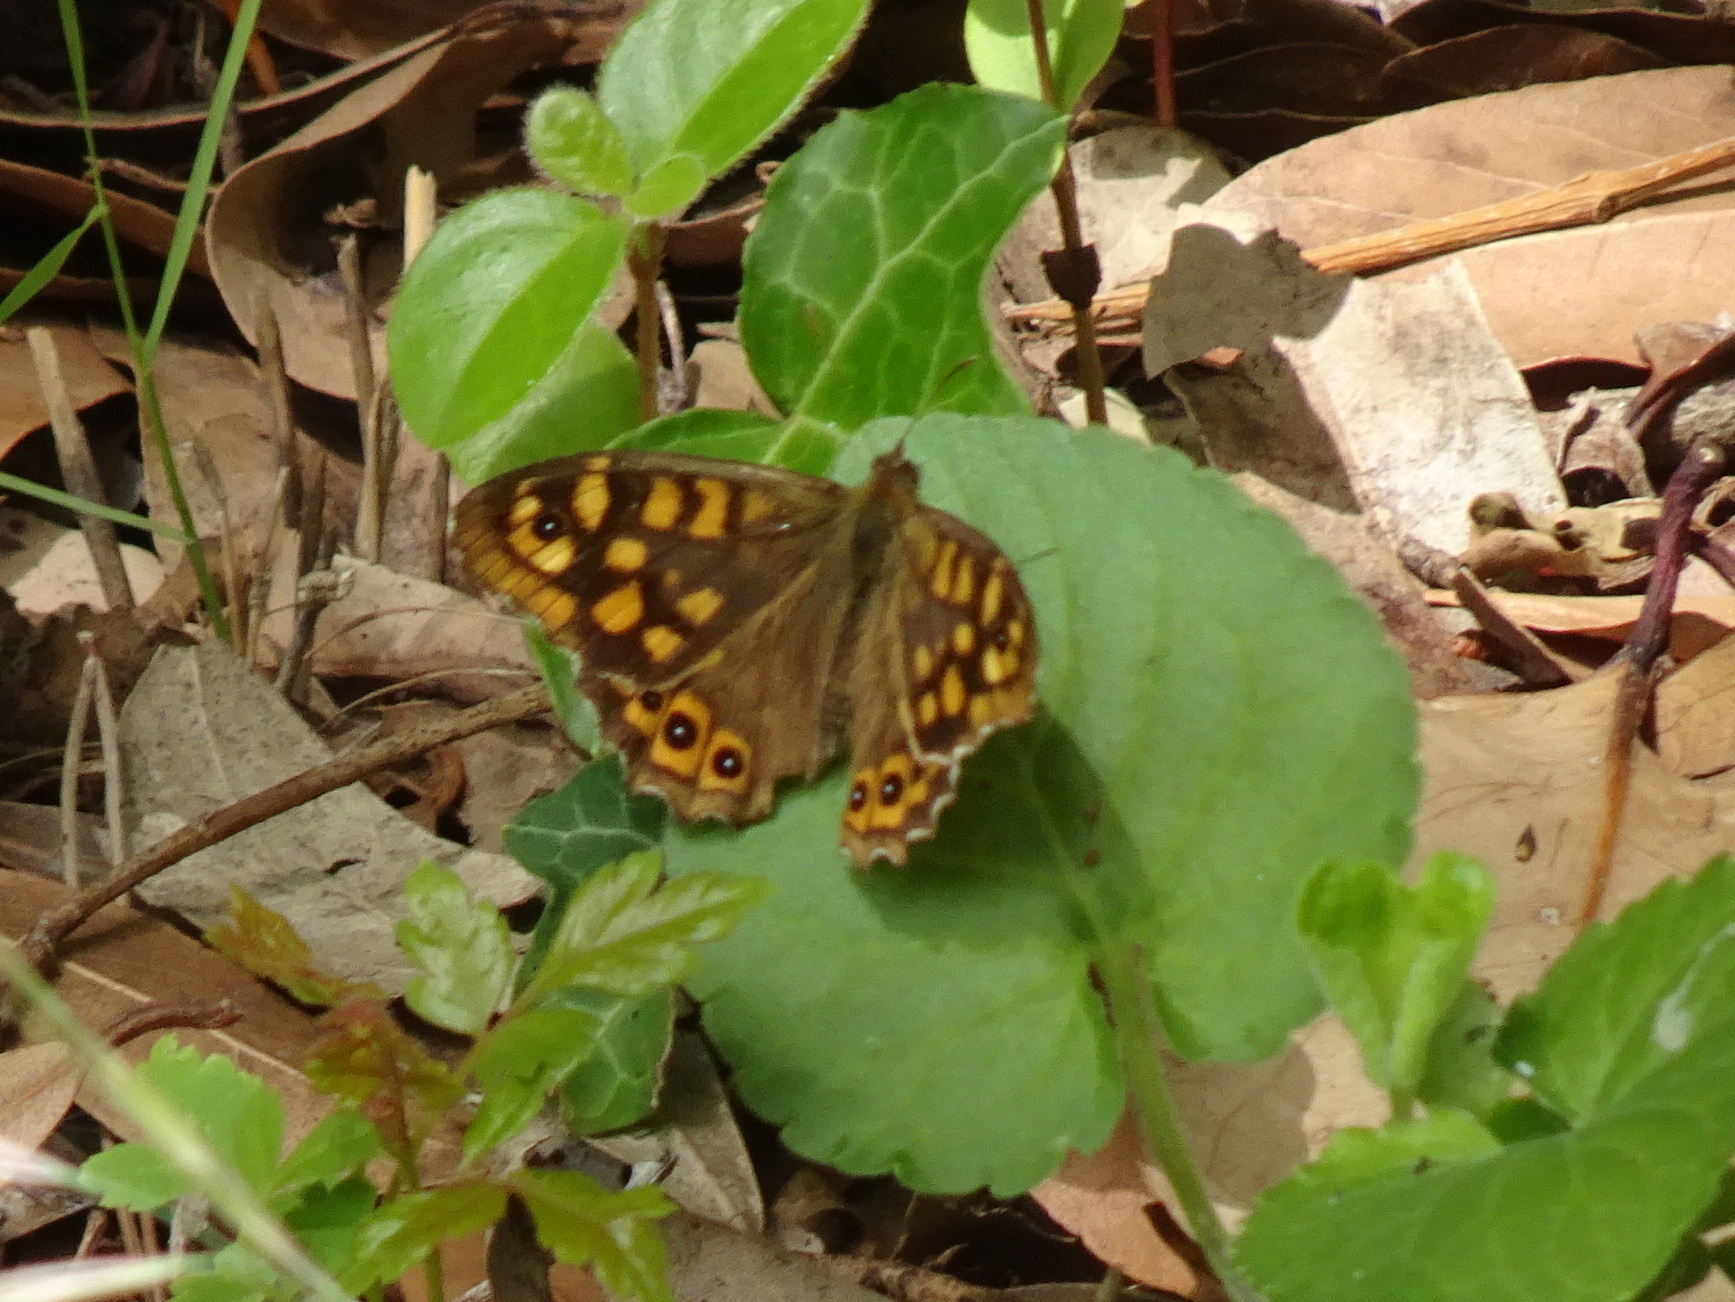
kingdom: Animalia
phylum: Arthropoda
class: Insecta
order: Lepidoptera
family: Nymphalidae
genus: Pararge
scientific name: Pararge aegeria
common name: Speckled wood
